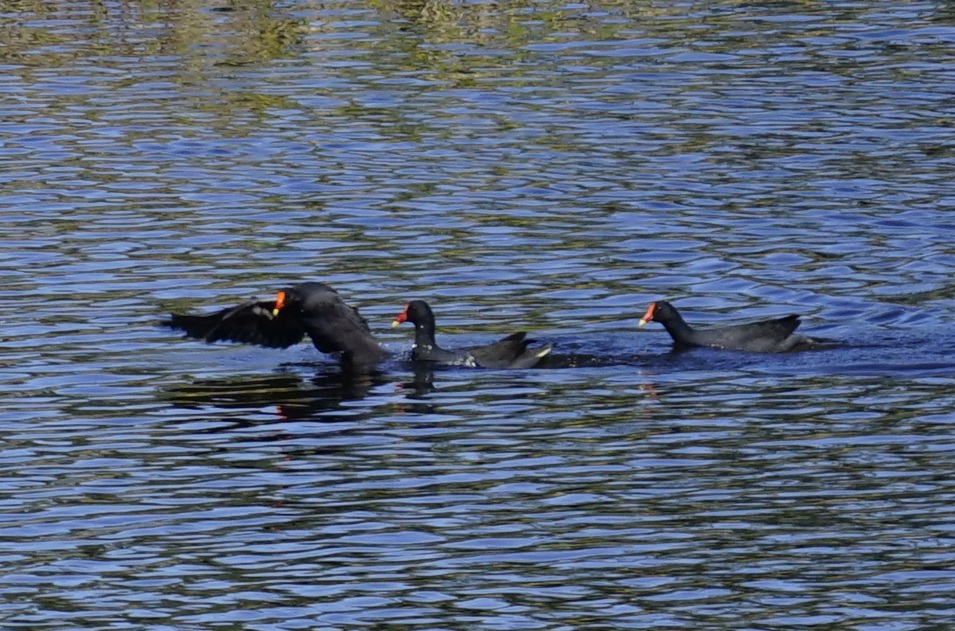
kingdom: Animalia
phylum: Chordata
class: Aves
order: Gruiformes
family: Rallidae
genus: Gallinula
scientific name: Gallinula tenebrosa
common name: Dusky moorhen
